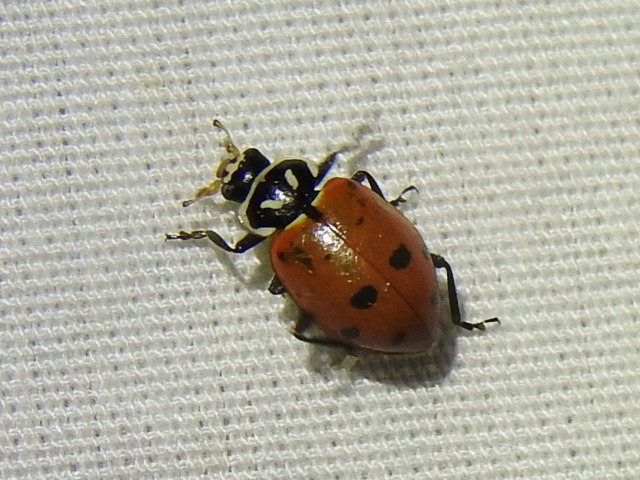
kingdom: Animalia
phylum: Arthropoda
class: Insecta
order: Coleoptera
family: Coccinellidae
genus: Hippodamia
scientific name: Hippodamia convergens
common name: Convergent lady beetle
